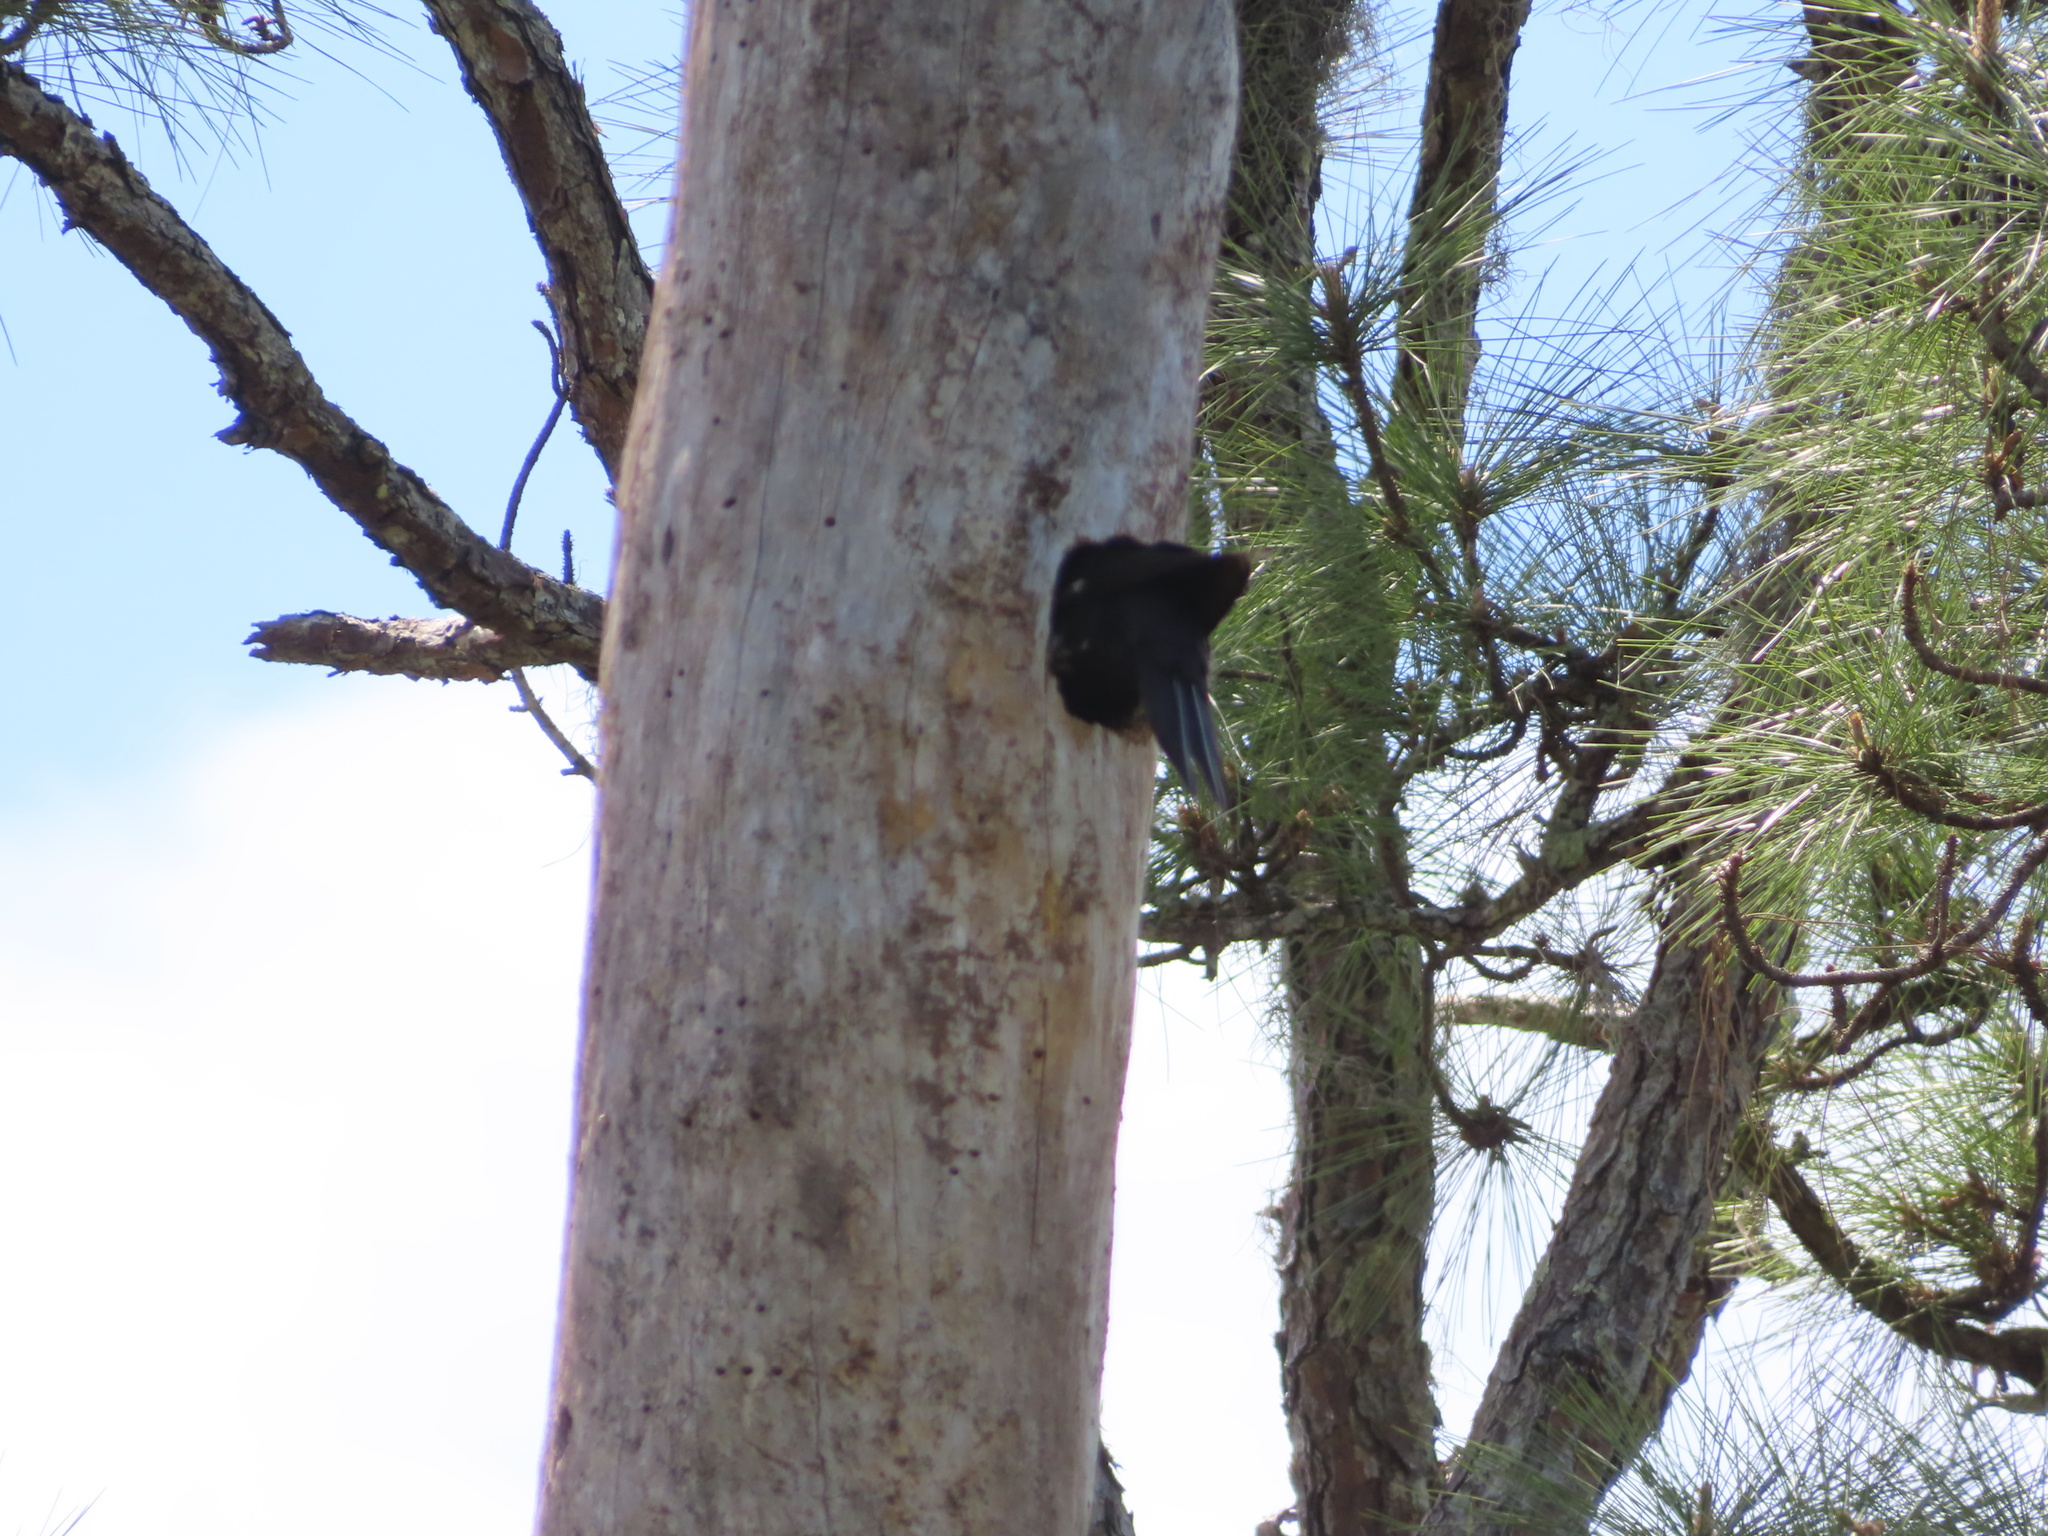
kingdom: Animalia
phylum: Chordata
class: Aves
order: Piciformes
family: Picidae
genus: Dryocopus
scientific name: Dryocopus pileatus
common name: Pileated woodpecker
